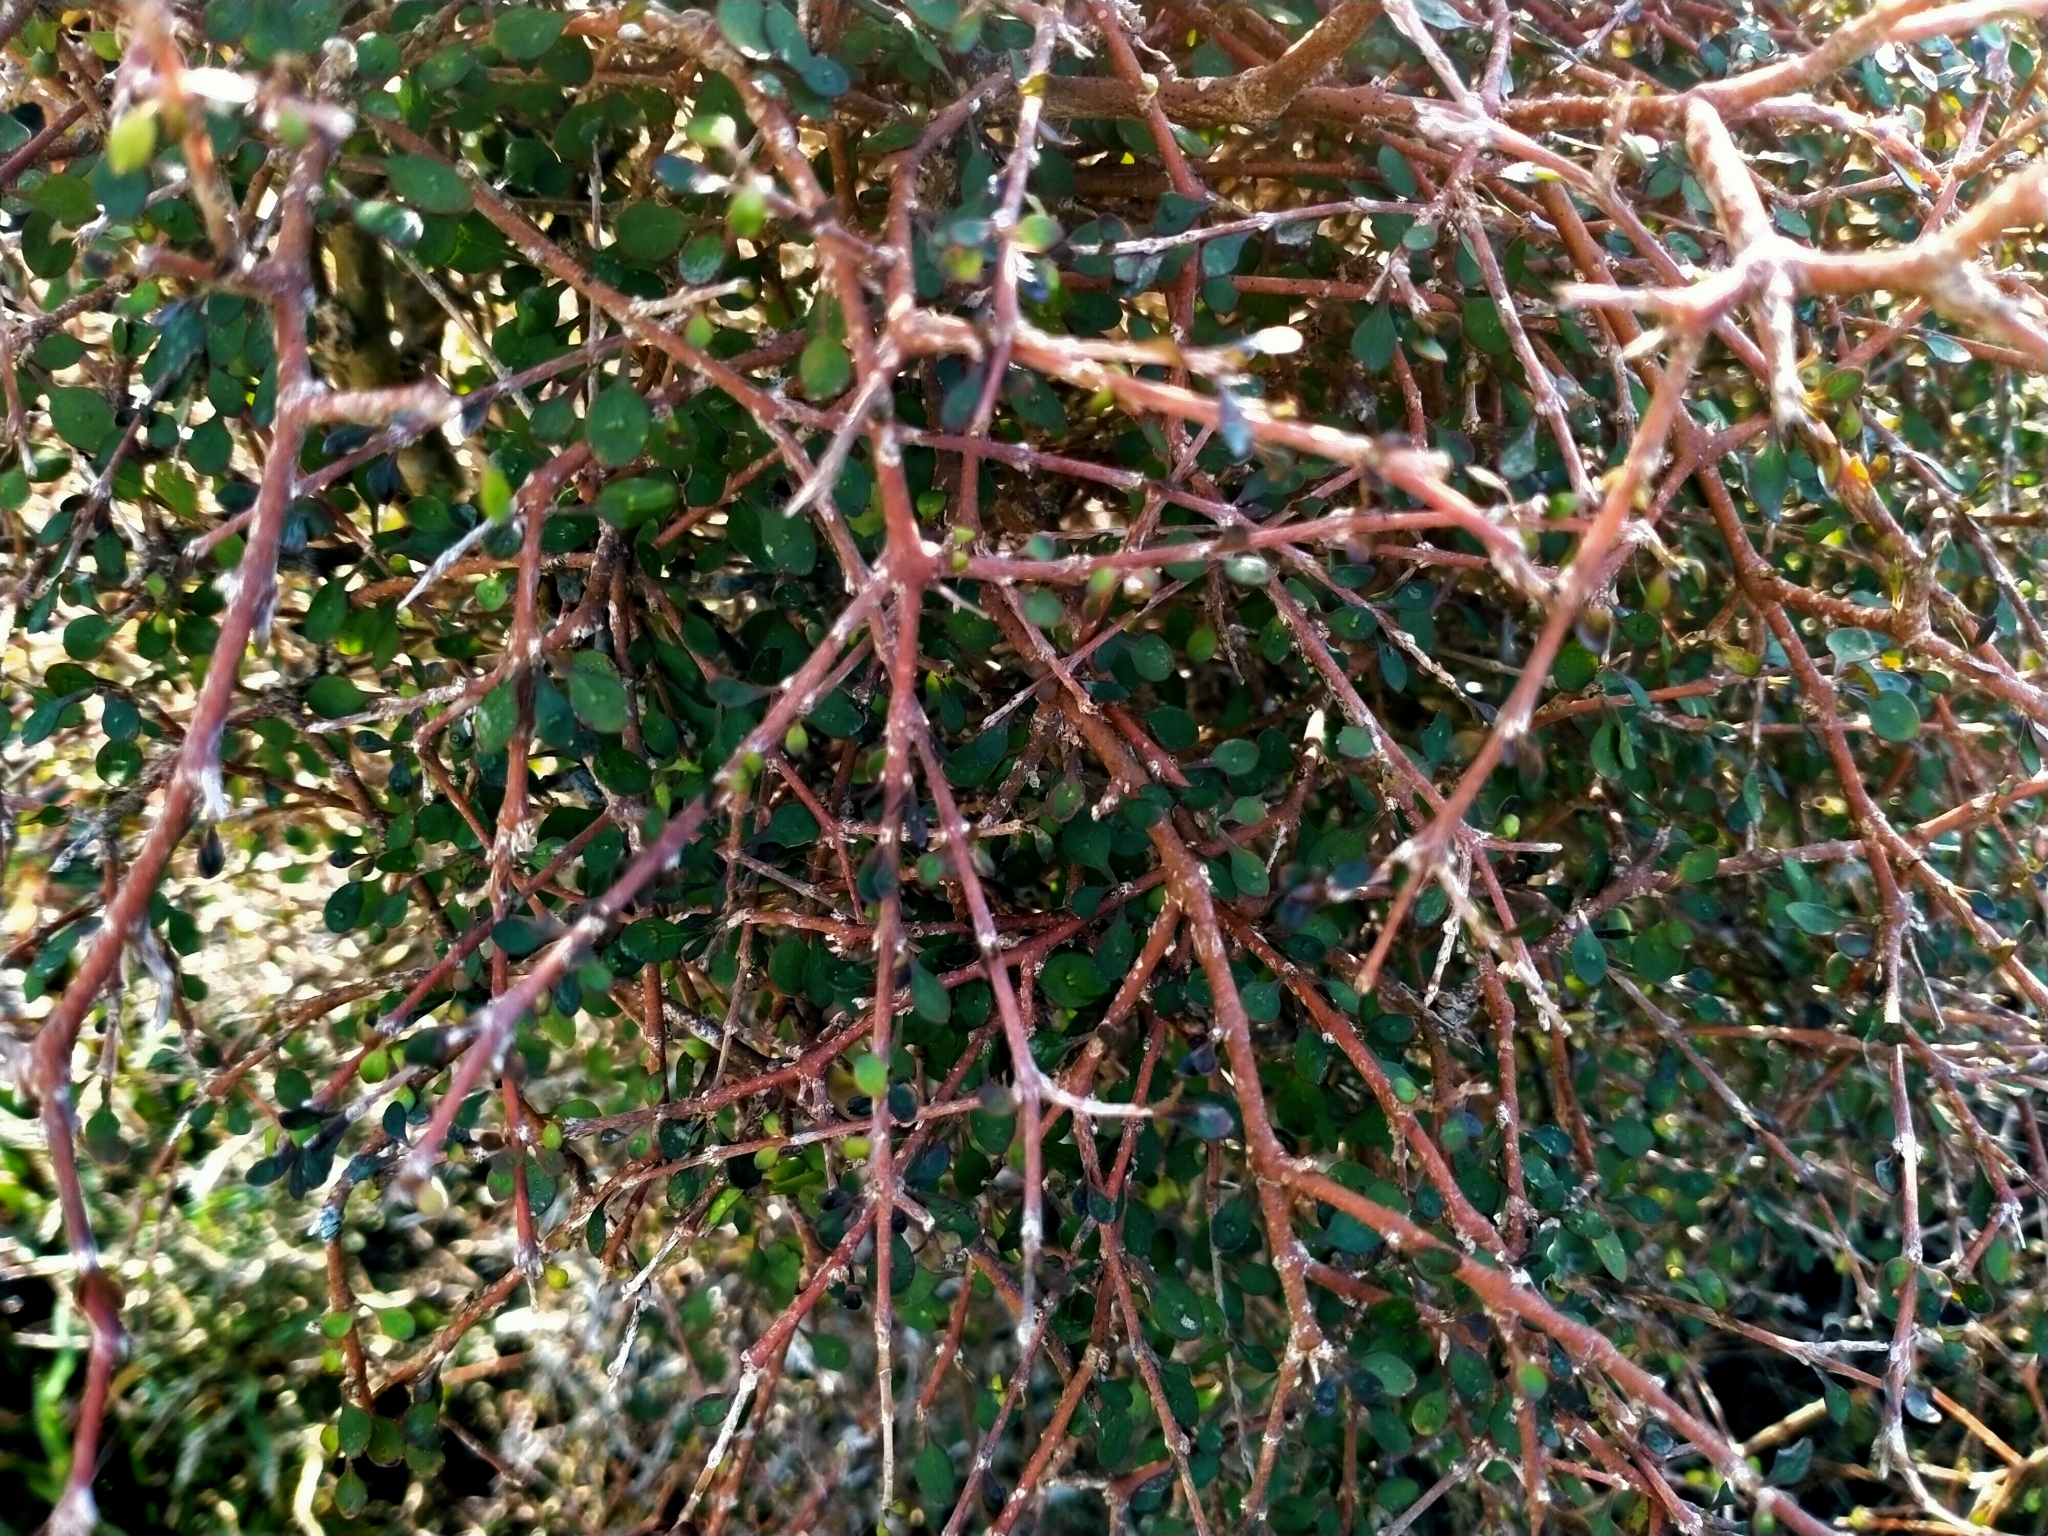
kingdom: Plantae
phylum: Tracheophyta
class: Magnoliopsida
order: Gentianales
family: Rubiaceae
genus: Coprosma
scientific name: Coprosma virescens
